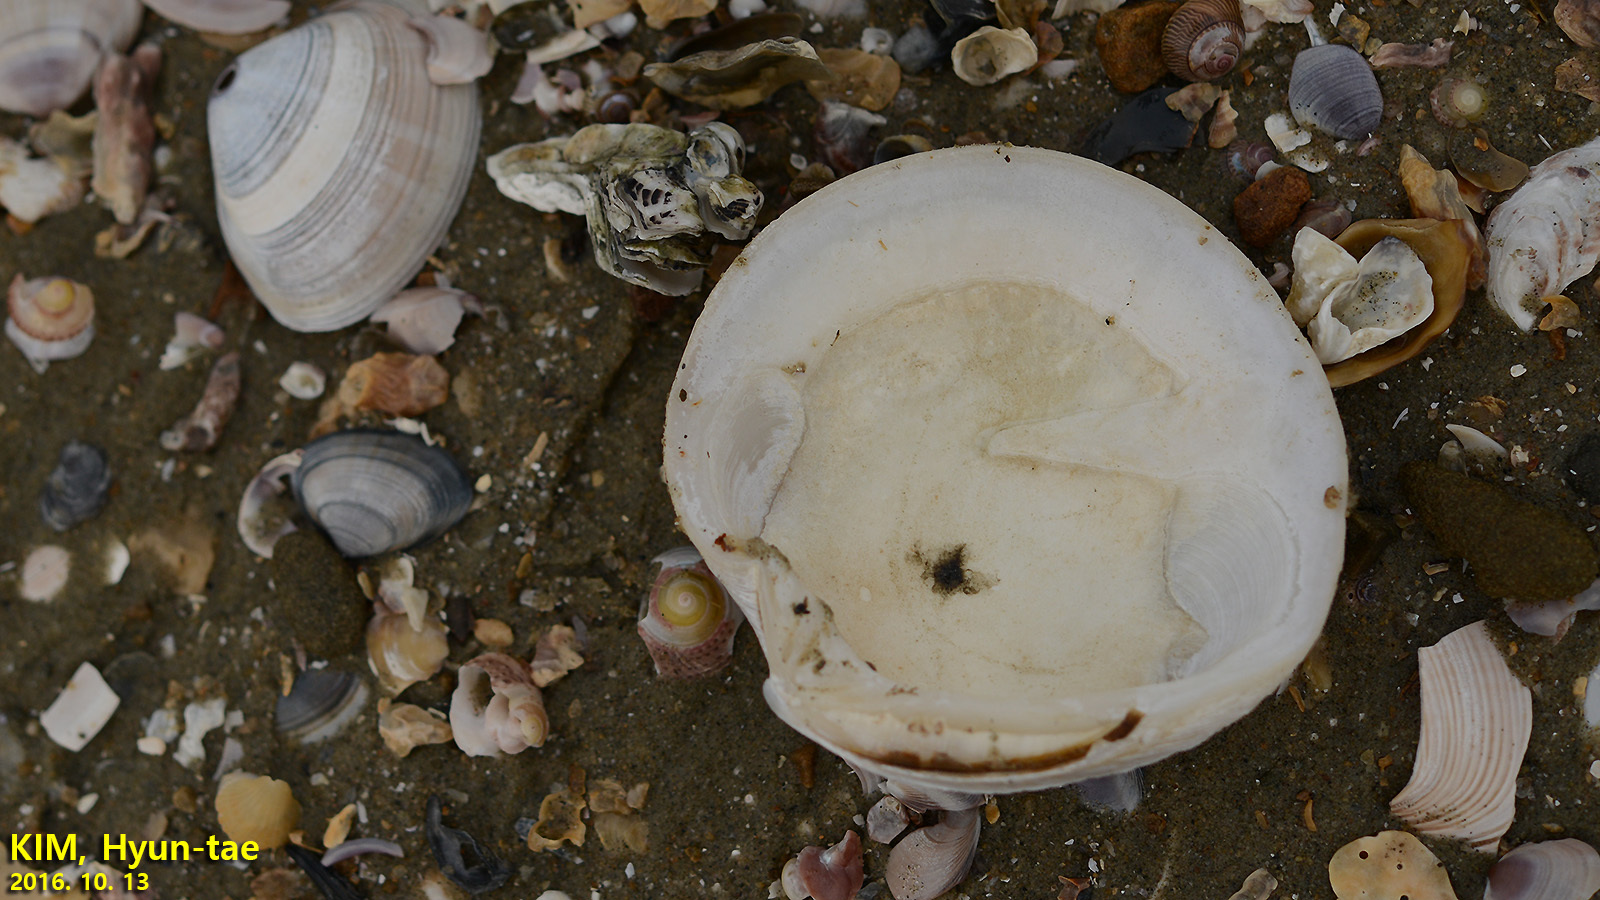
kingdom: Animalia
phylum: Mollusca
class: Bivalvia
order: Venerida
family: Veneridae
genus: Dosinia
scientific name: Dosinia japonica
